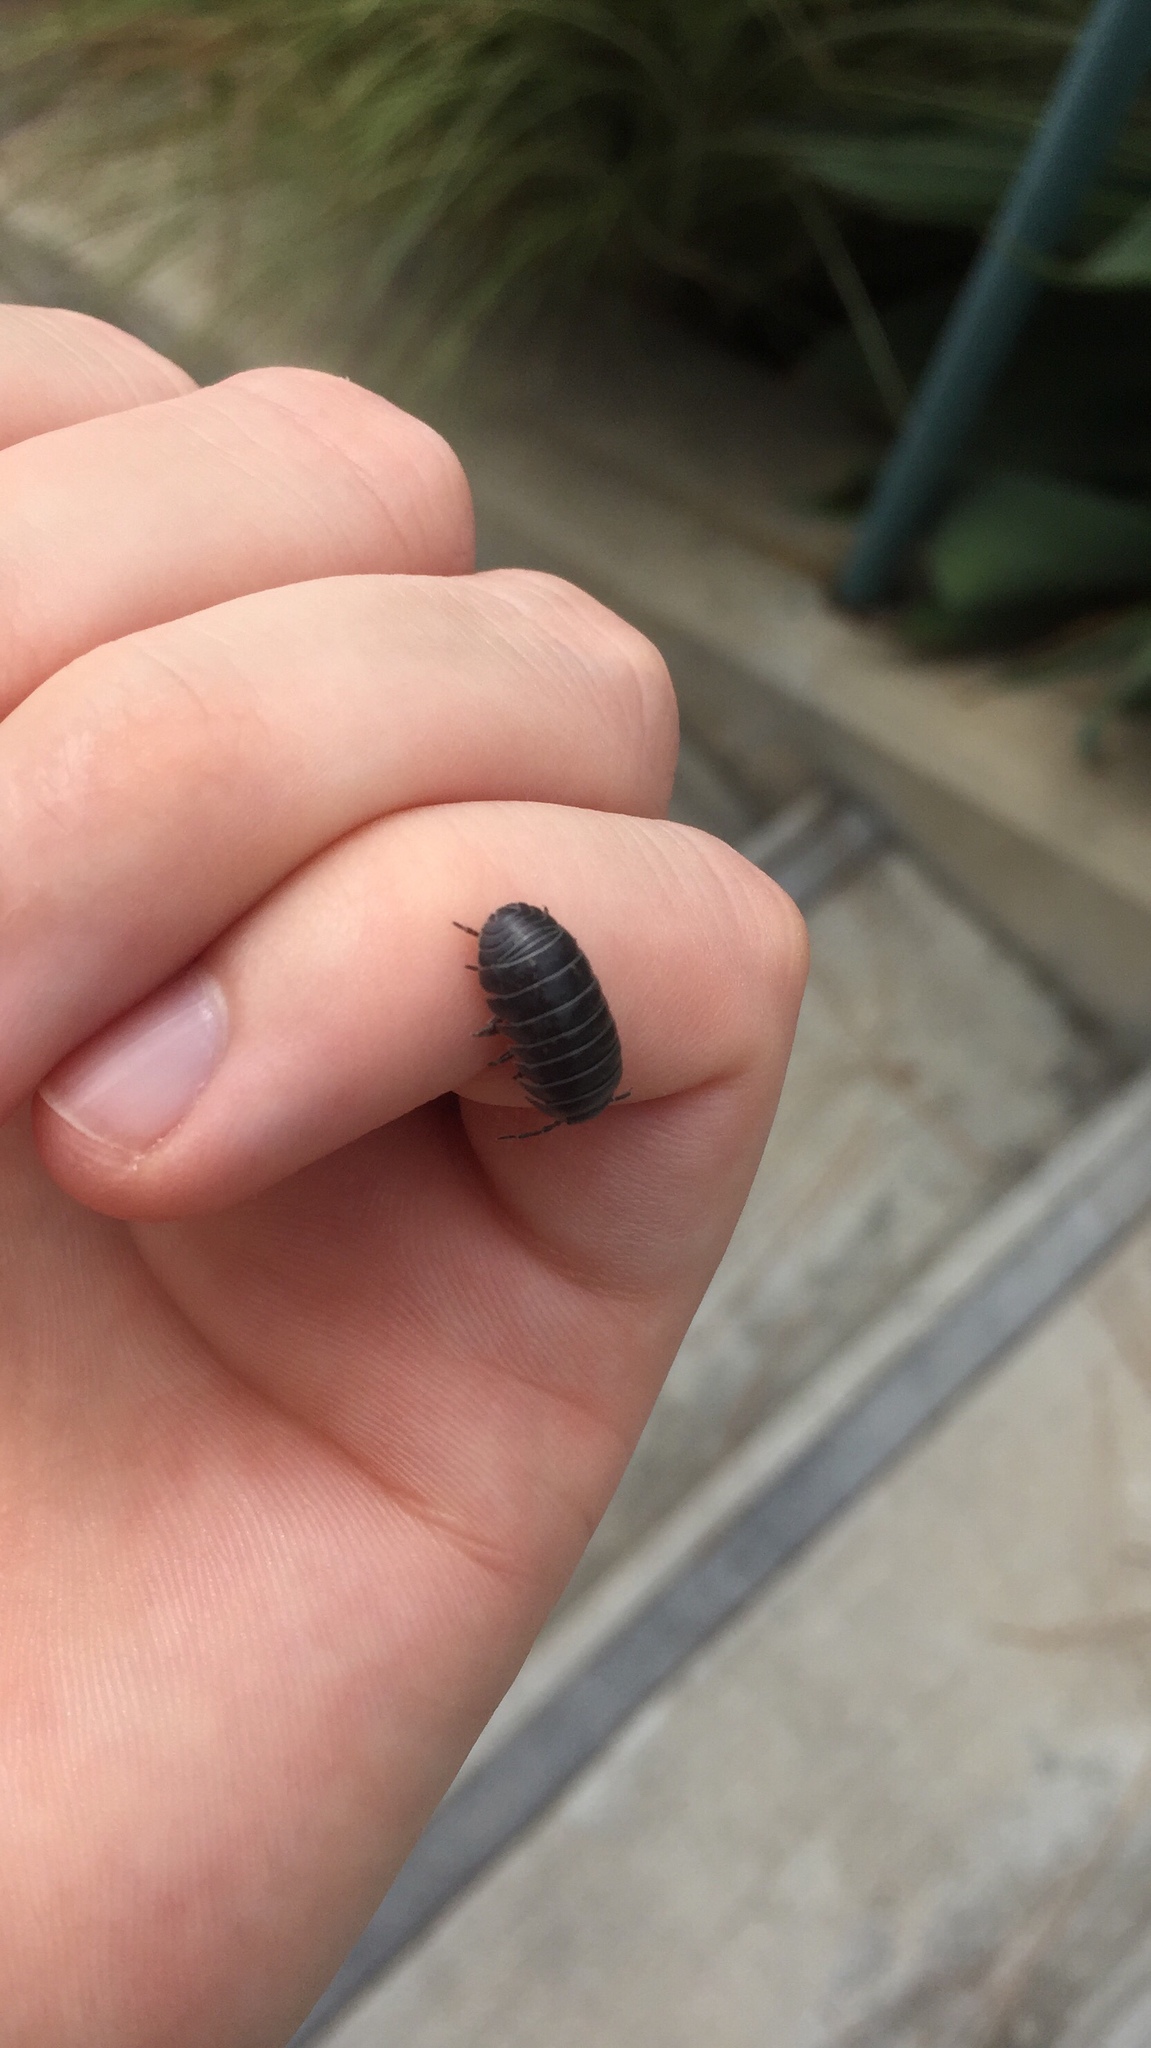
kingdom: Animalia
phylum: Arthropoda
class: Malacostraca
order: Isopoda
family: Armadillidiidae
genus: Armadillidium
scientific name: Armadillidium vulgare
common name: Common pill woodlouse
